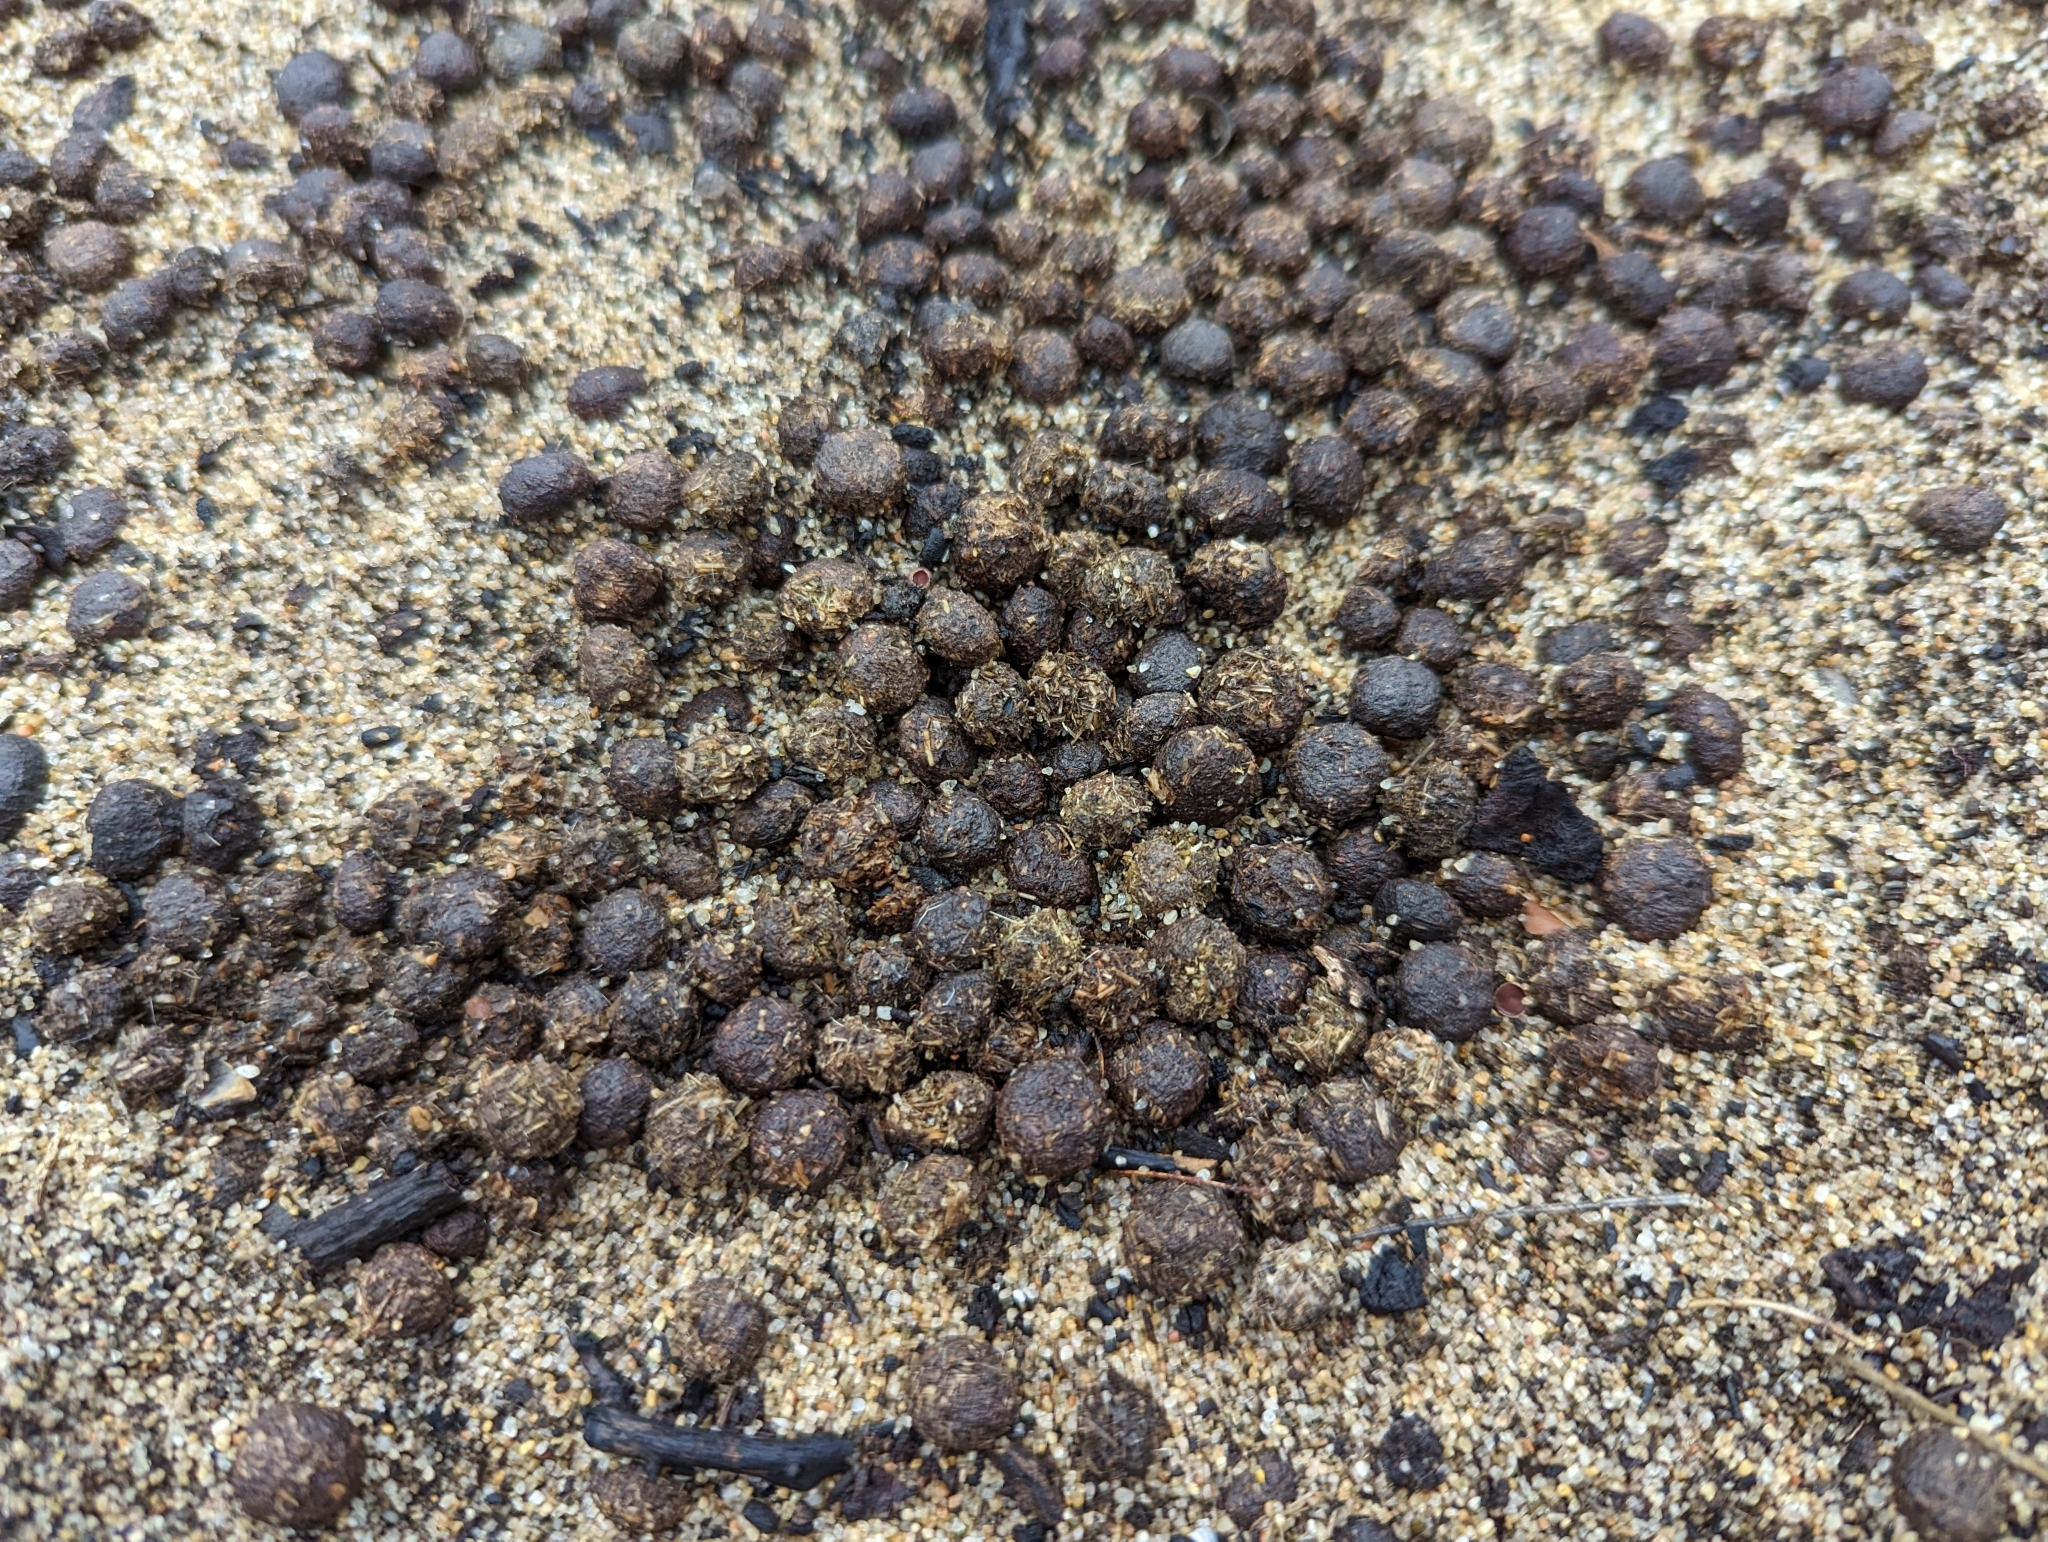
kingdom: Animalia
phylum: Chordata
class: Mammalia
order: Lagomorpha
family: Leporidae
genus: Oryctolagus
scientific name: Oryctolagus cuniculus
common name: European rabbit
